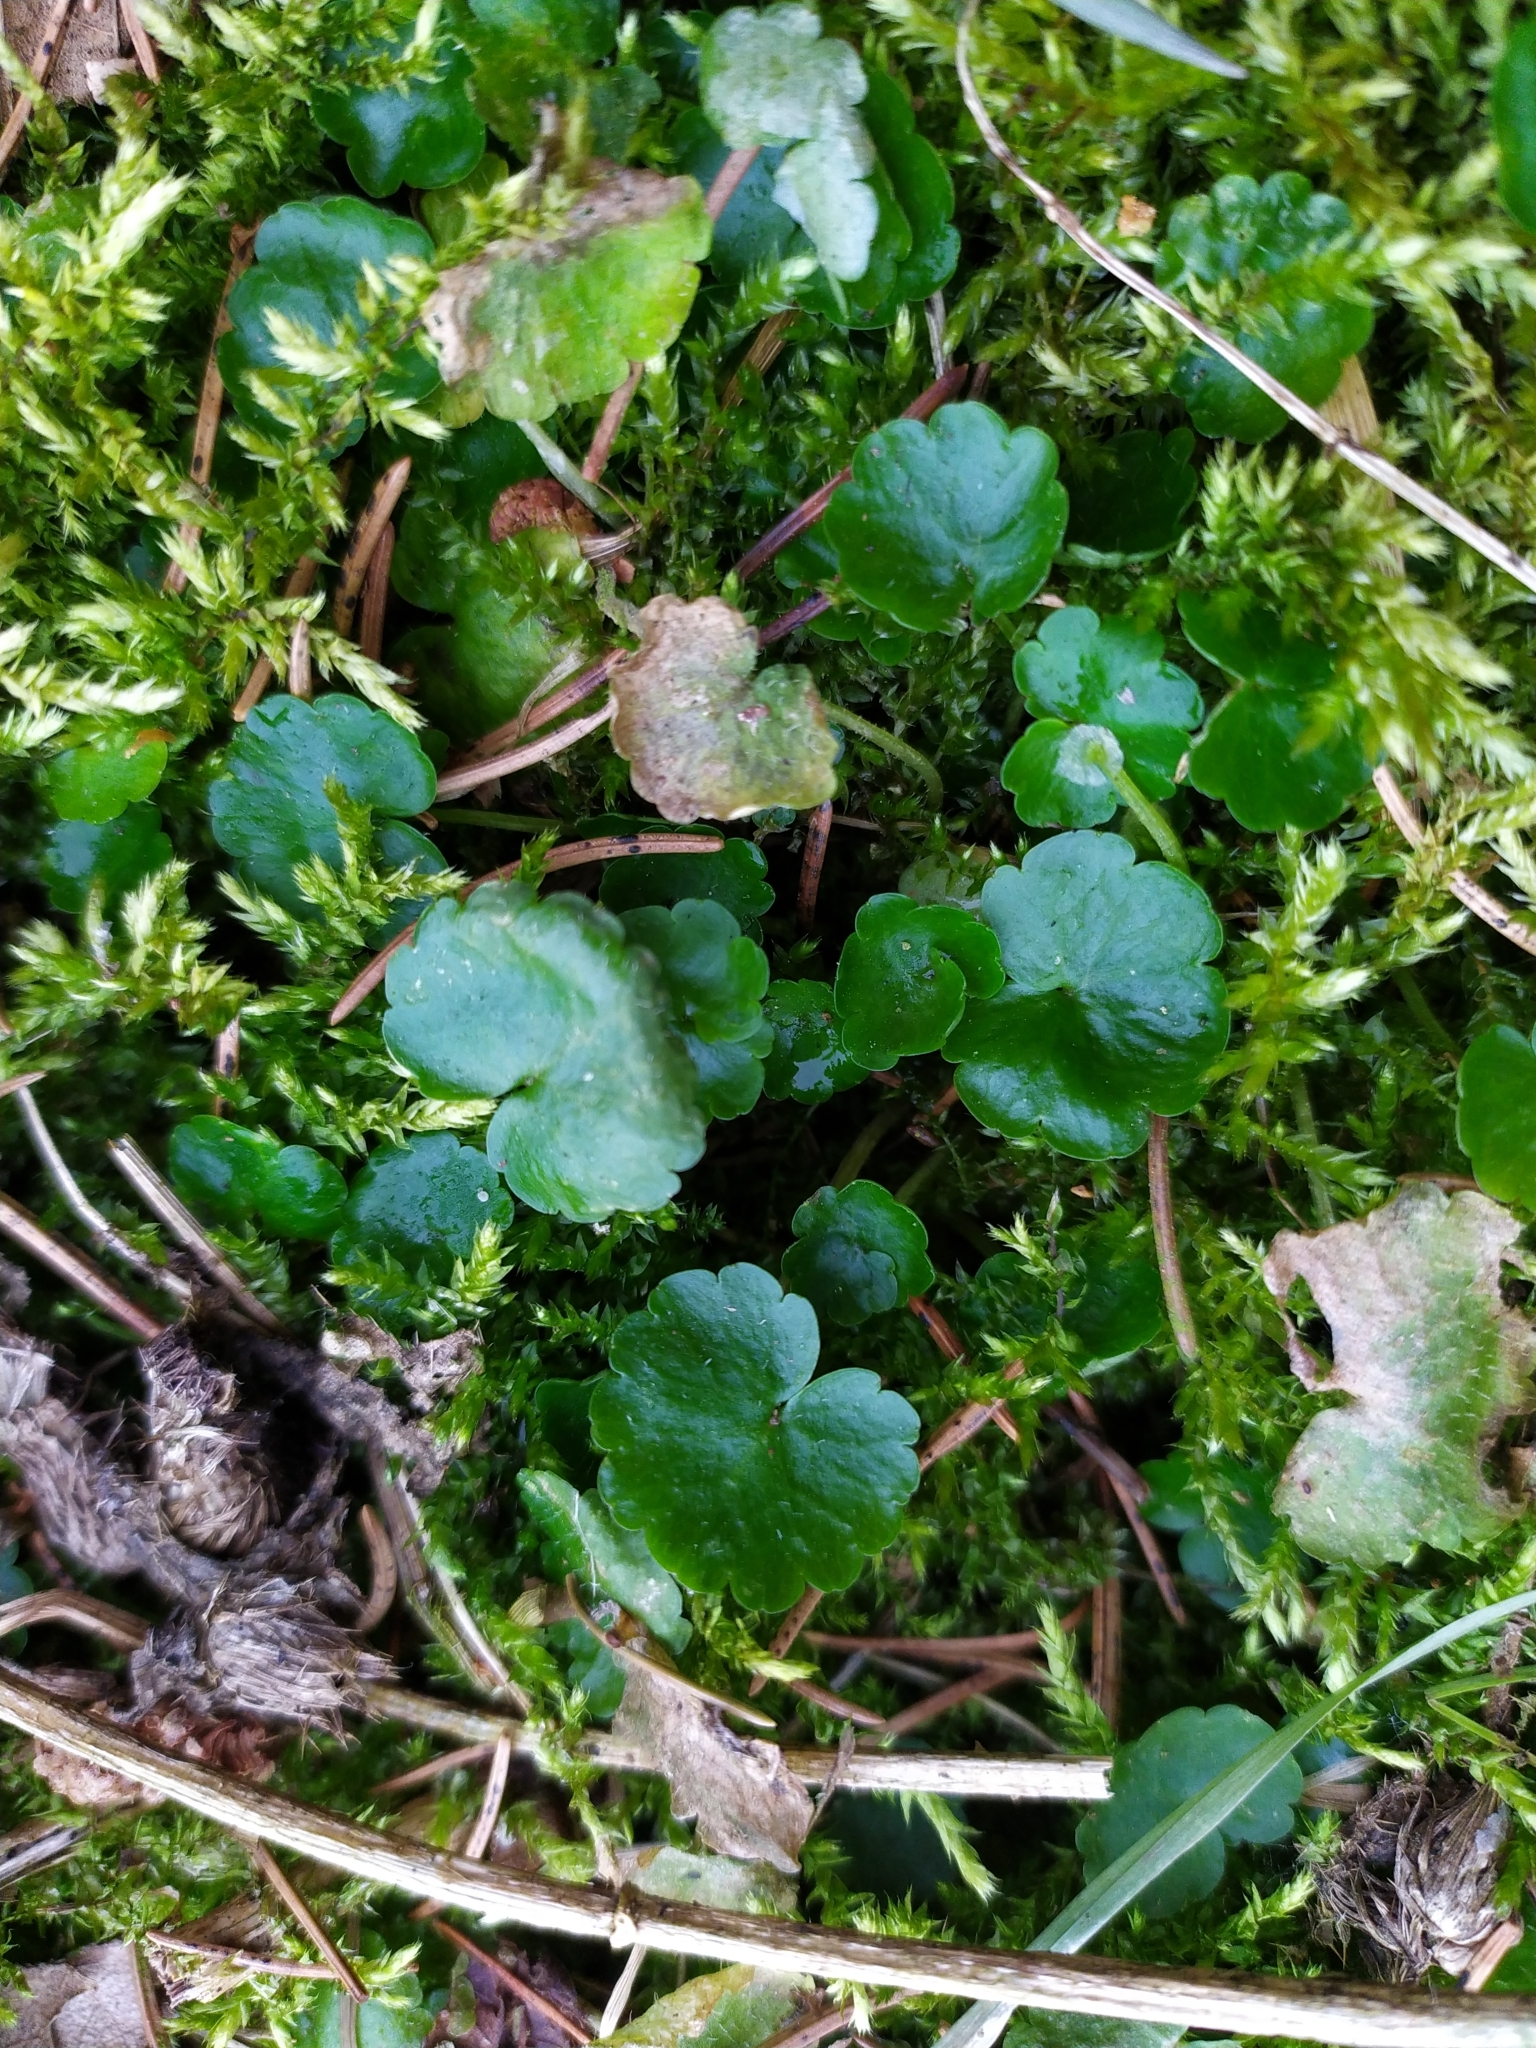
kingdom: Plantae
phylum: Tracheophyta
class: Magnoliopsida
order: Saxifragales
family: Saxifragaceae
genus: Chrysosplenium
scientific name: Chrysosplenium alternifolium
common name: Alternate-leaved golden-saxifrage
